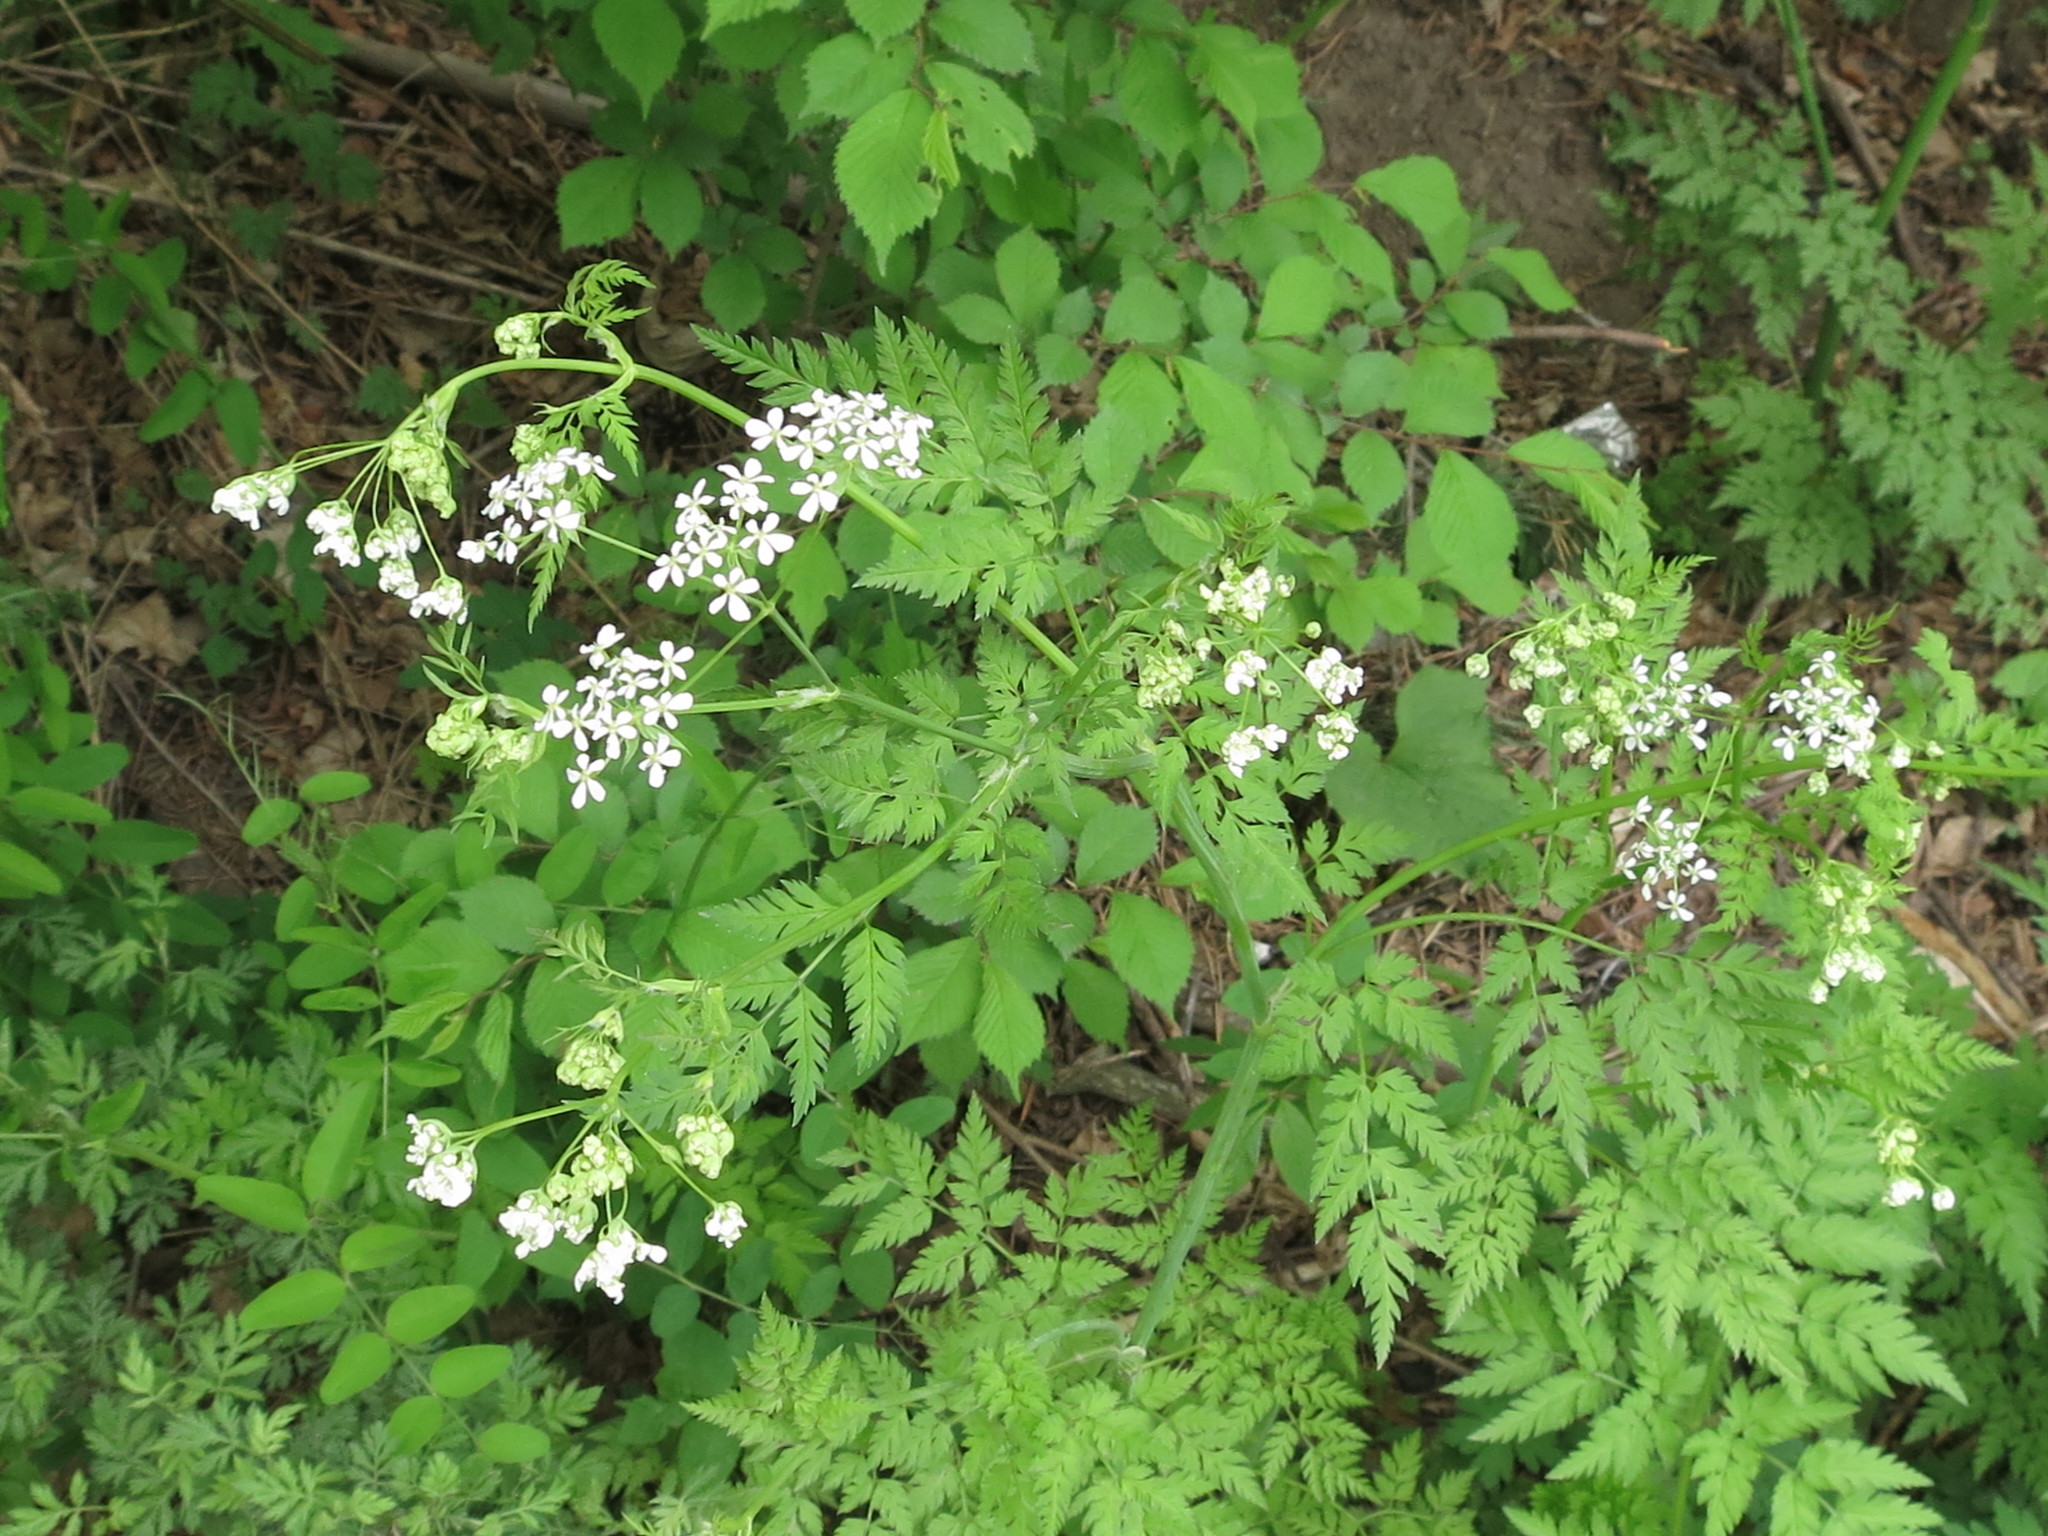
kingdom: Plantae
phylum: Tracheophyta
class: Magnoliopsida
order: Apiales
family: Apiaceae
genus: Anthriscus
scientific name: Anthriscus sylvestris
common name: Cow parsley
